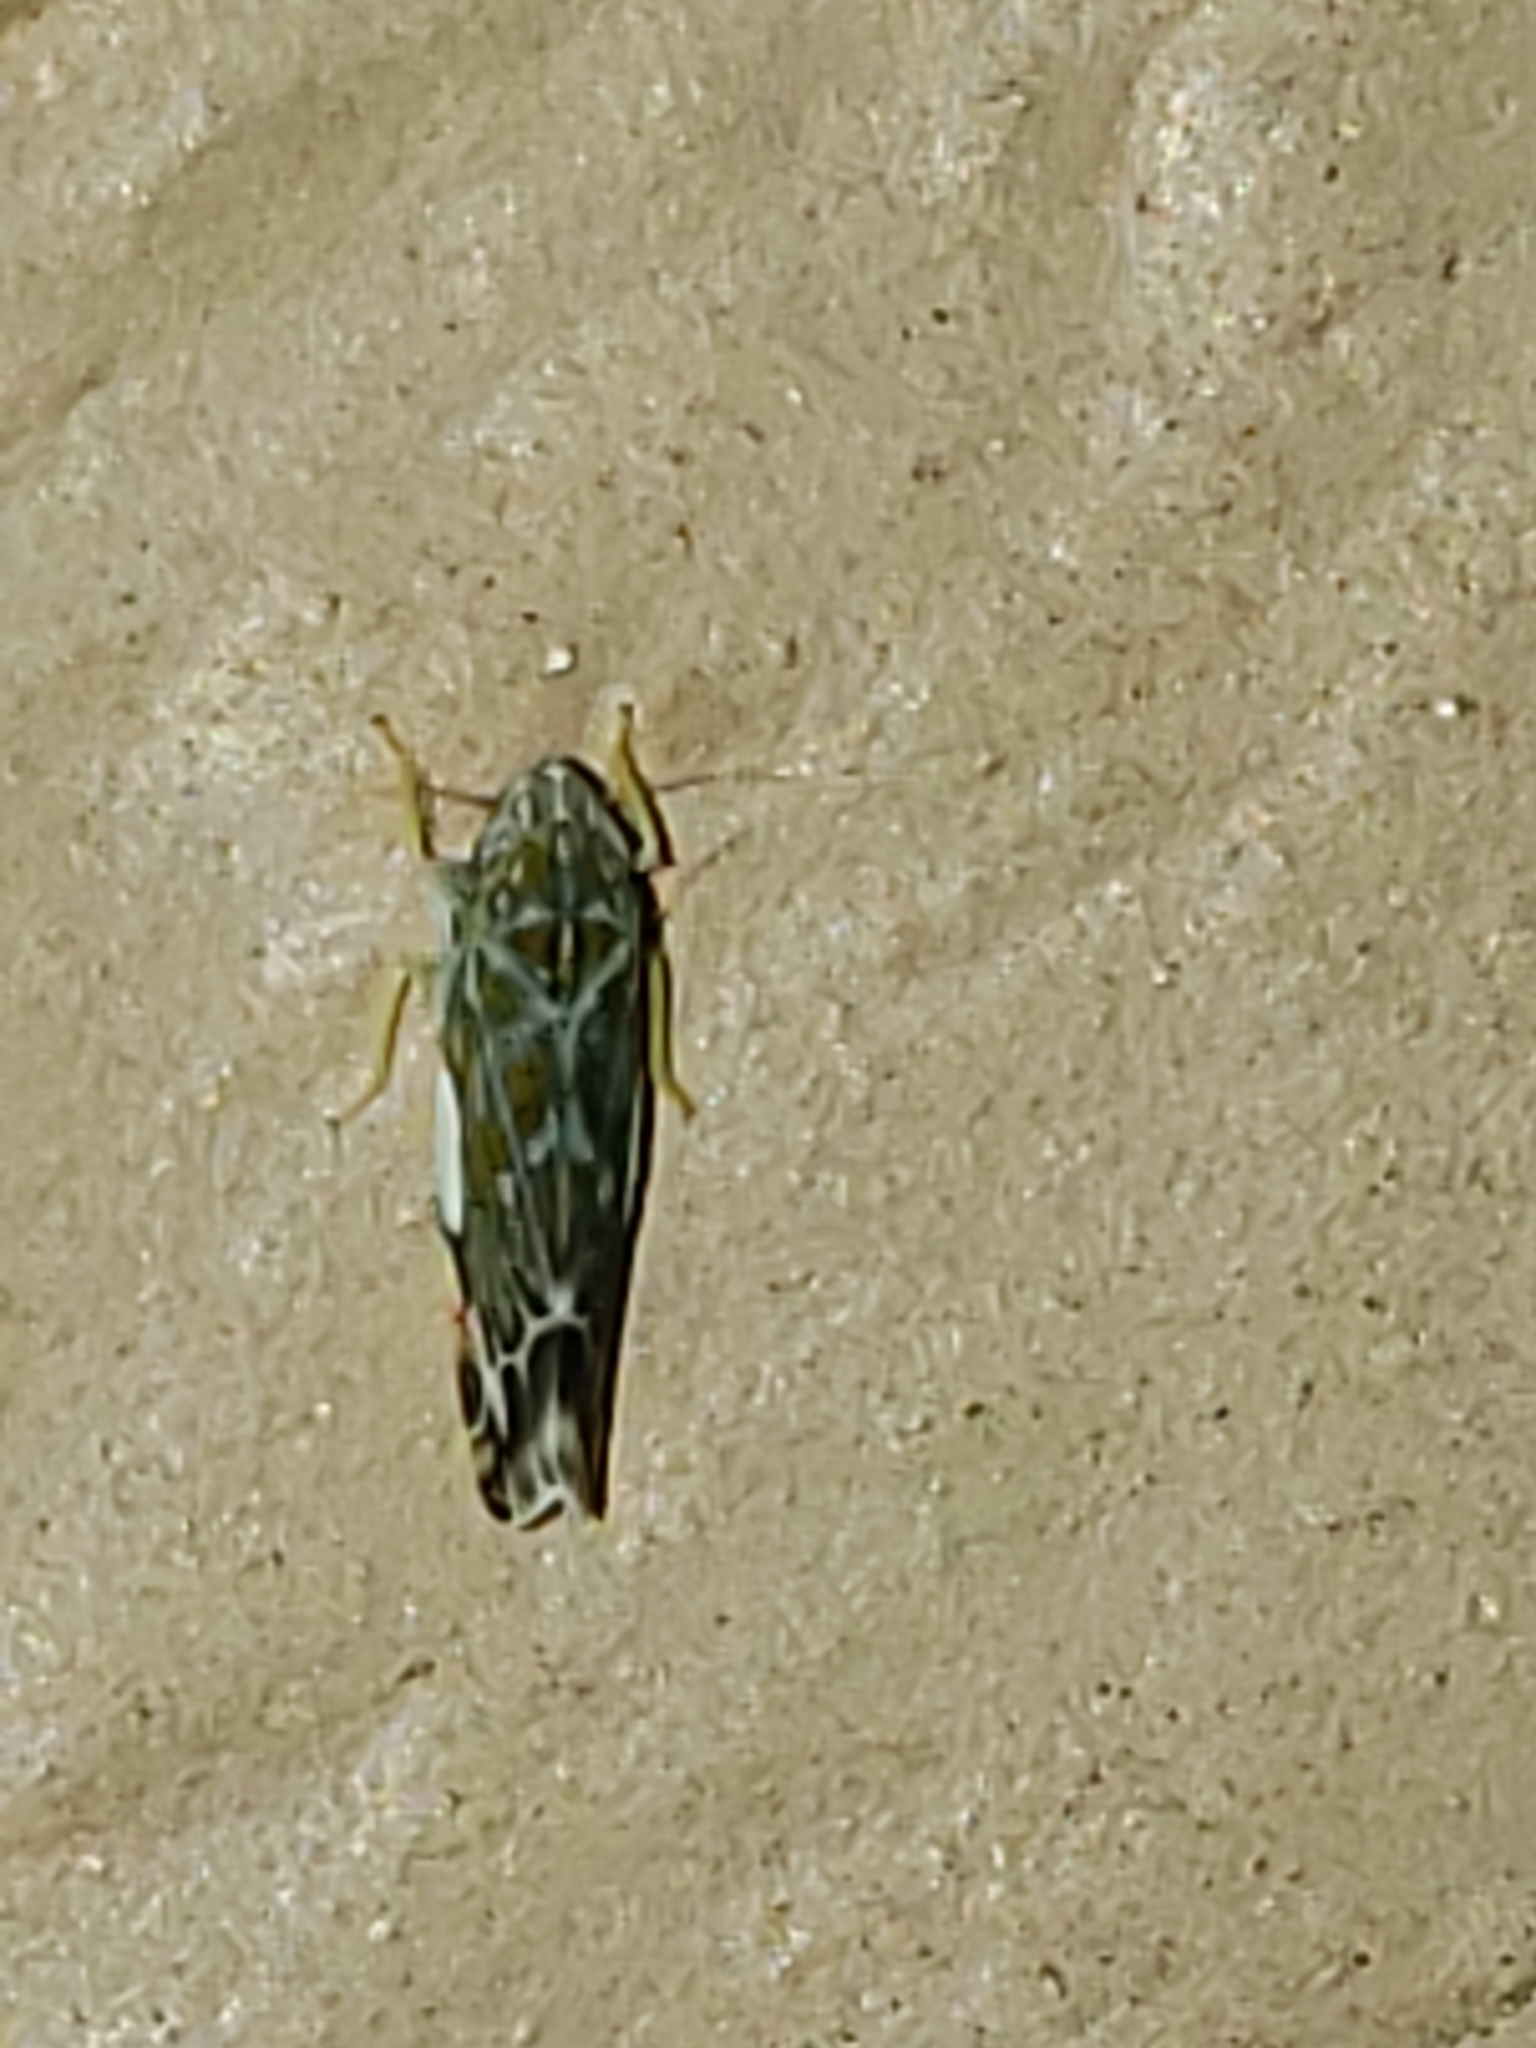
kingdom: Animalia
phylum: Arthropoda
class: Insecta
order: Hemiptera
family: Cicadellidae
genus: Erasmoneura
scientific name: Erasmoneura vulnerata
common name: The wounded leafhopper
